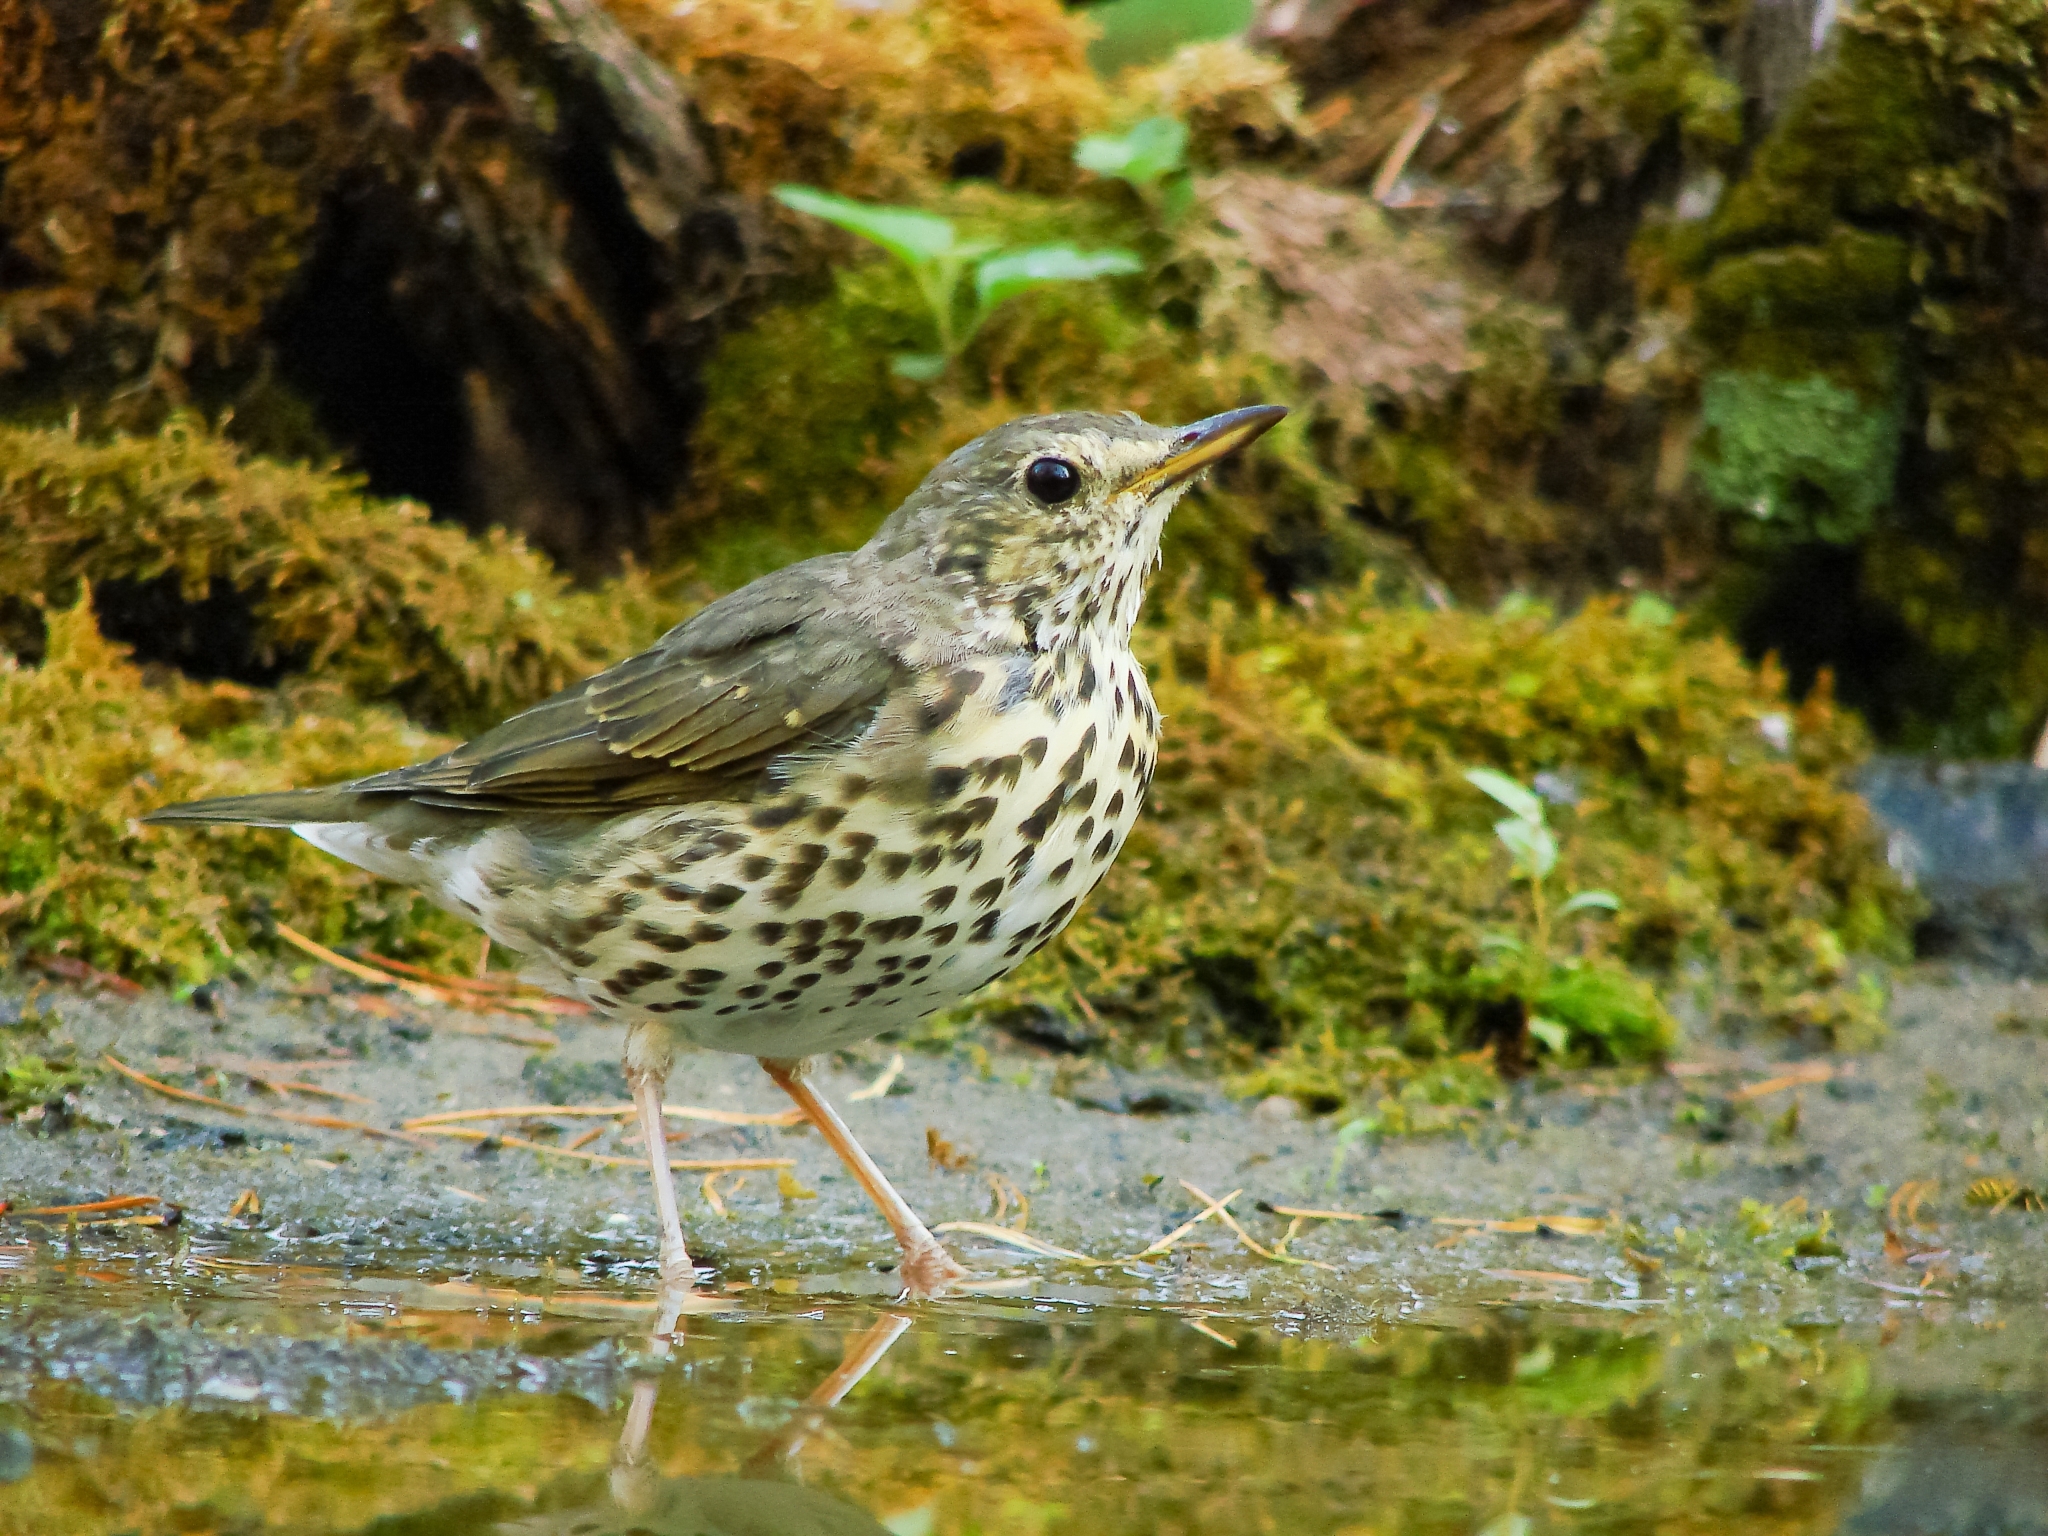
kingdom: Animalia
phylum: Chordata
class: Aves
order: Passeriformes
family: Turdidae
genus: Turdus
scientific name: Turdus philomelos
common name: Song thrush
